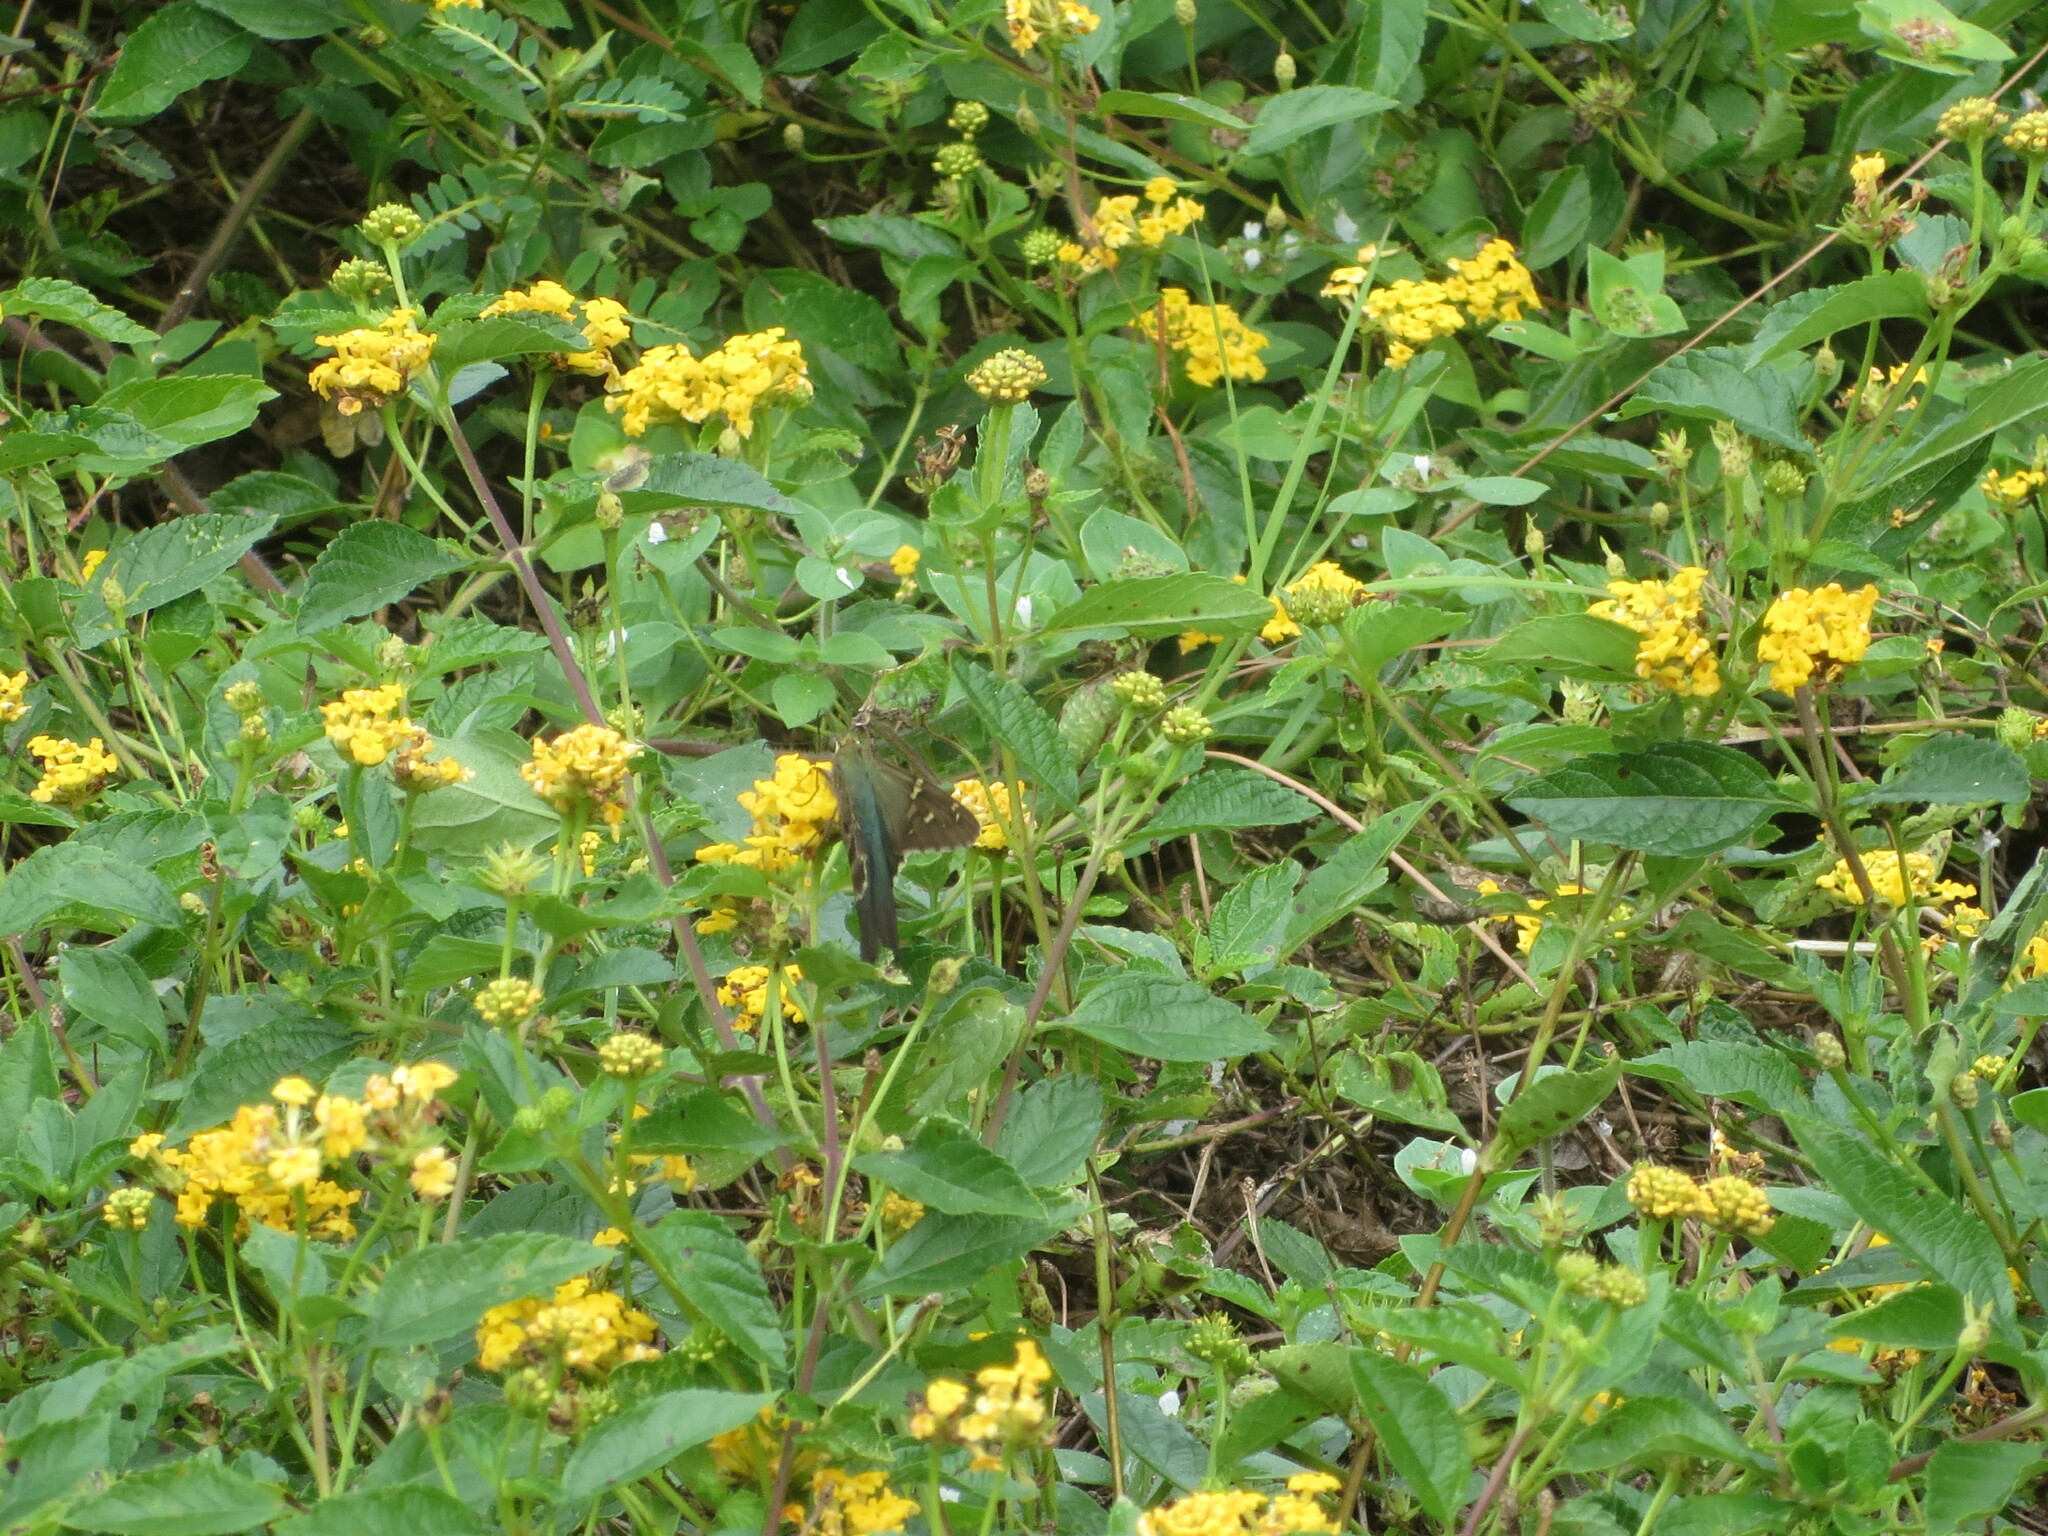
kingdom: Animalia
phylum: Arthropoda
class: Insecta
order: Lepidoptera
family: Hesperiidae
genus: Urbanus
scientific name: Urbanus proteus
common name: Long-tailed skipper
